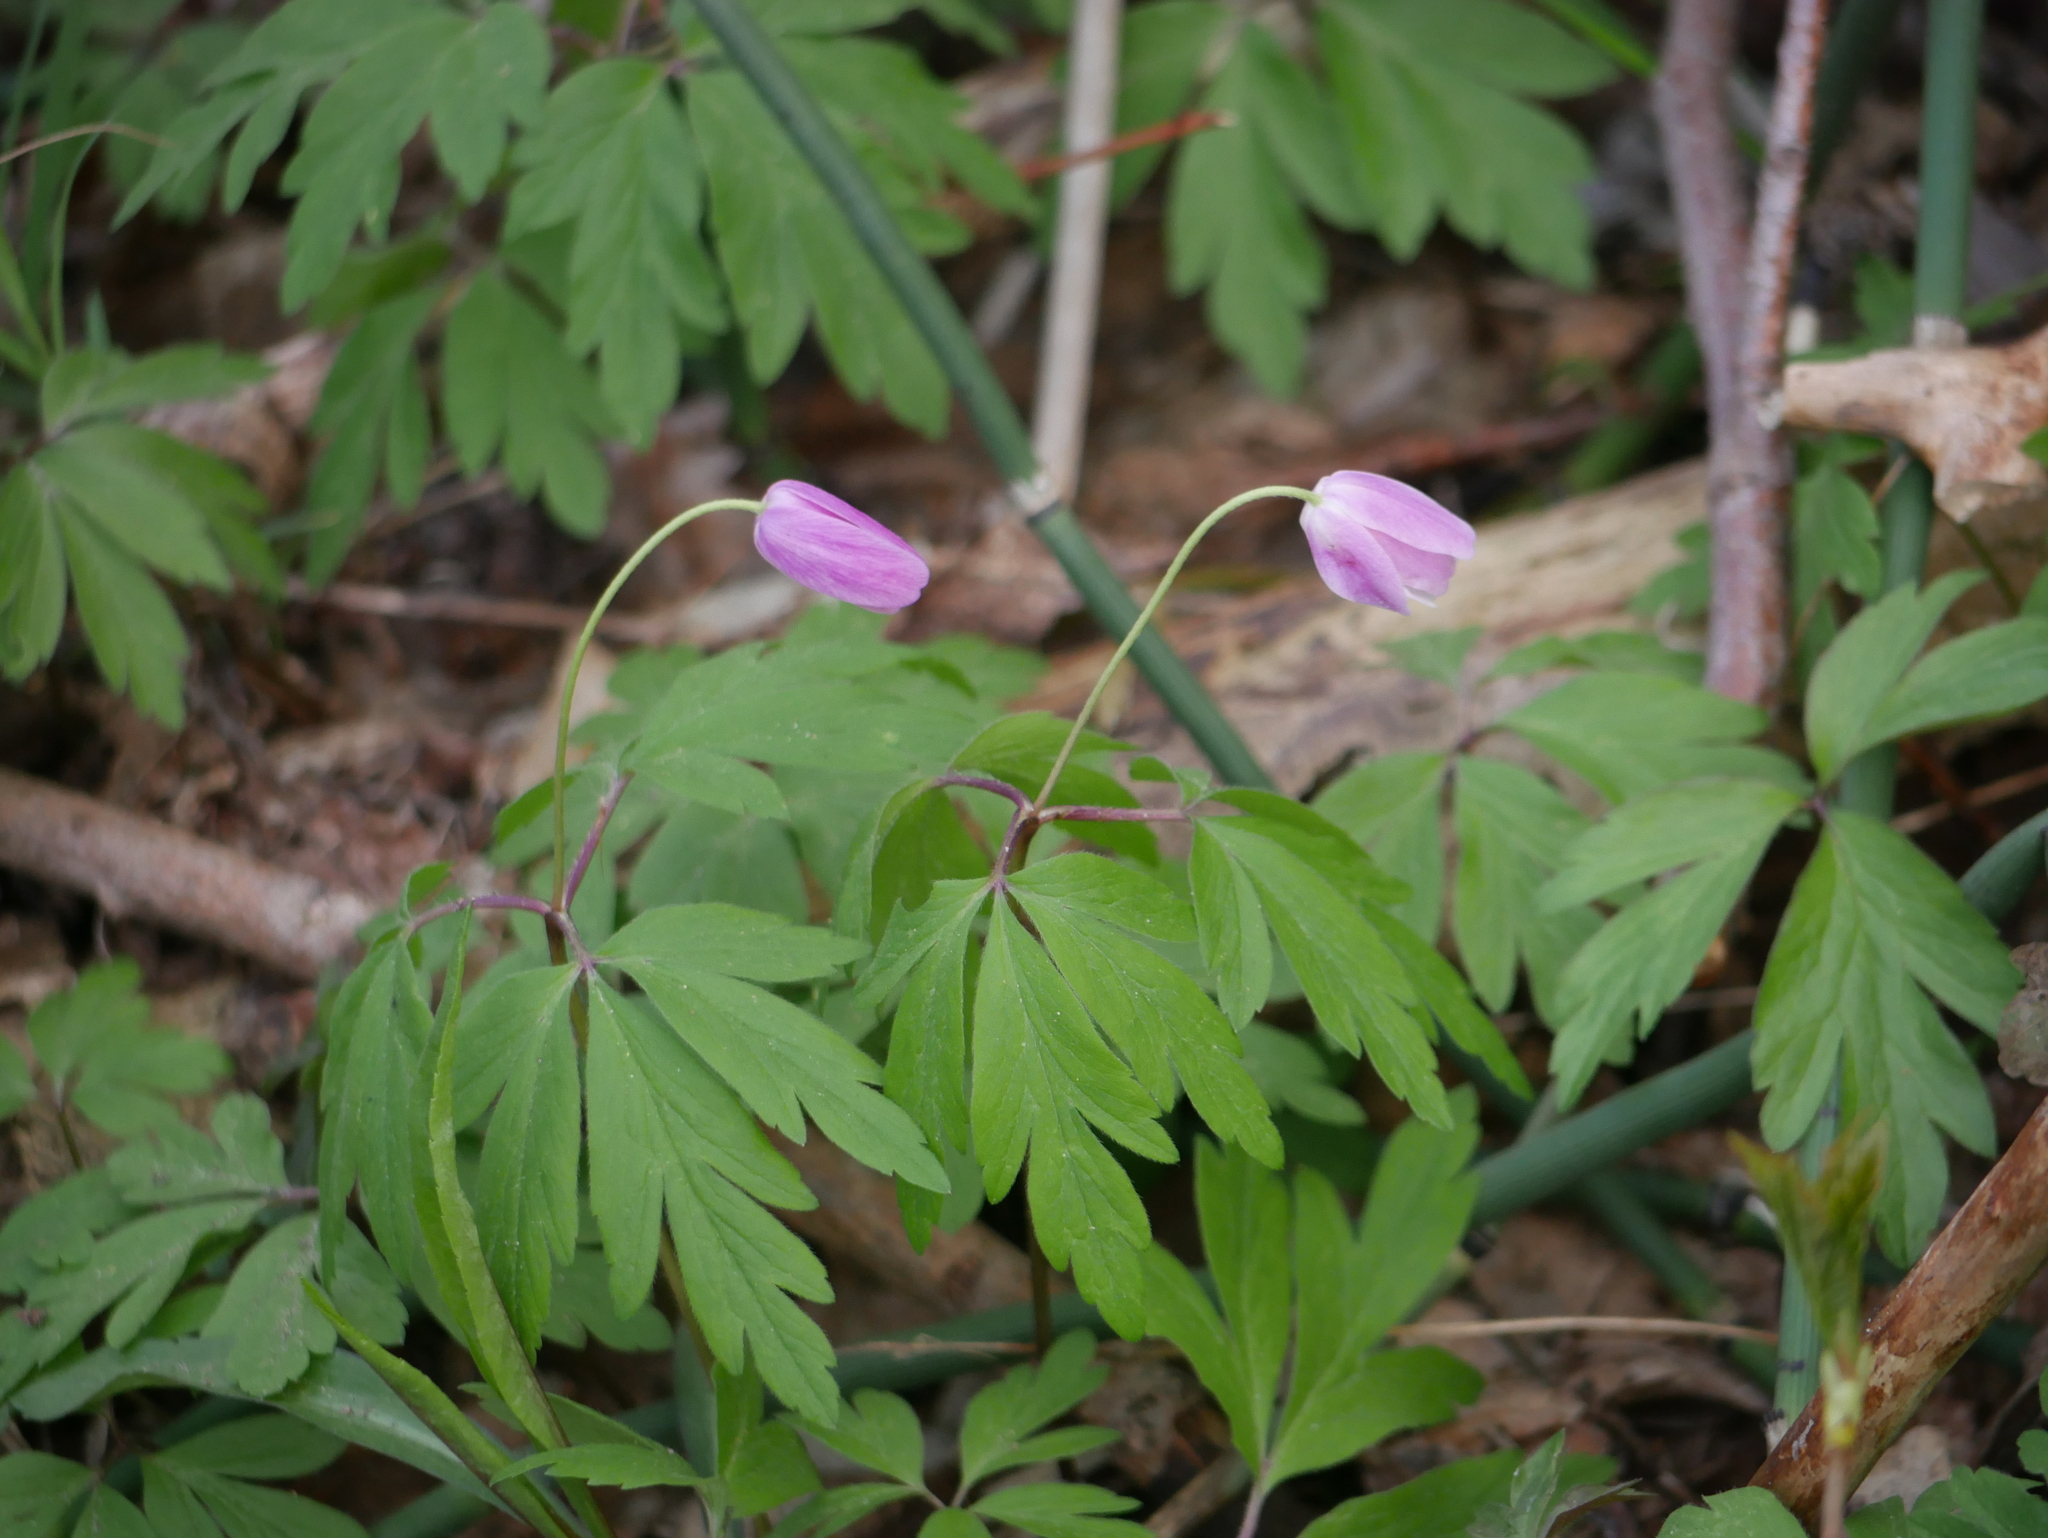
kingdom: Plantae
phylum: Tracheophyta
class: Magnoliopsida
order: Ranunculales
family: Ranunculaceae
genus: Anemone
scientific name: Anemone nemorosa
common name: Wood anemone
